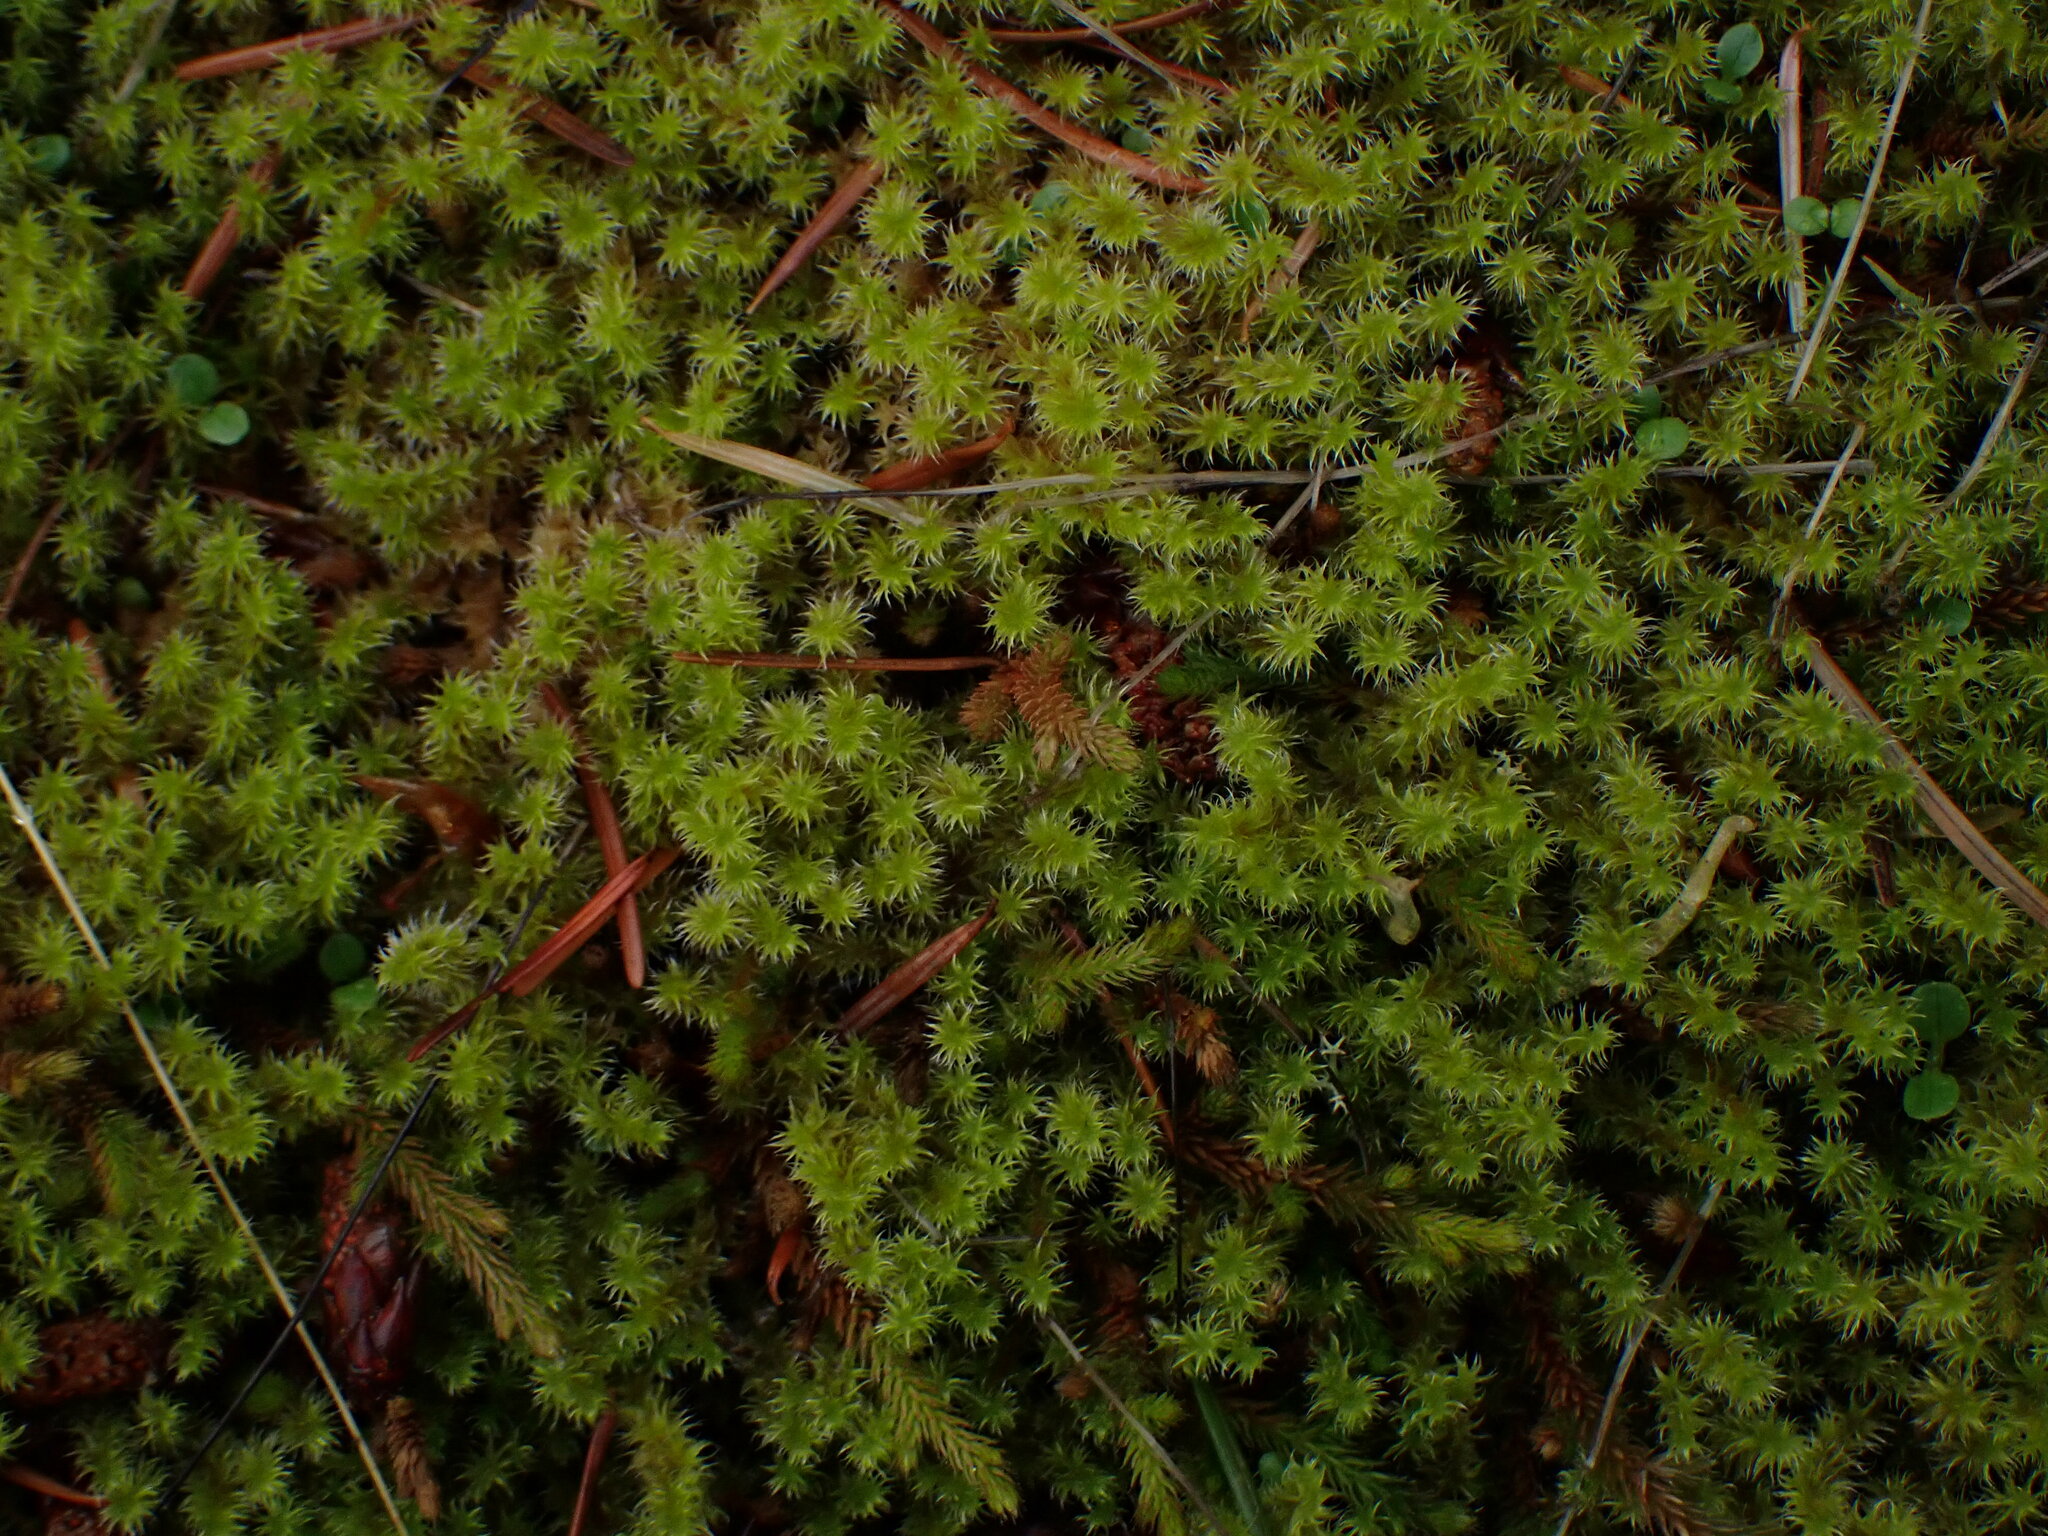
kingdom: Plantae
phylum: Bryophyta
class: Bryopsida
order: Grimmiales
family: Grimmiaceae
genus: Niphotrichum
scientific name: Niphotrichum elongatum
